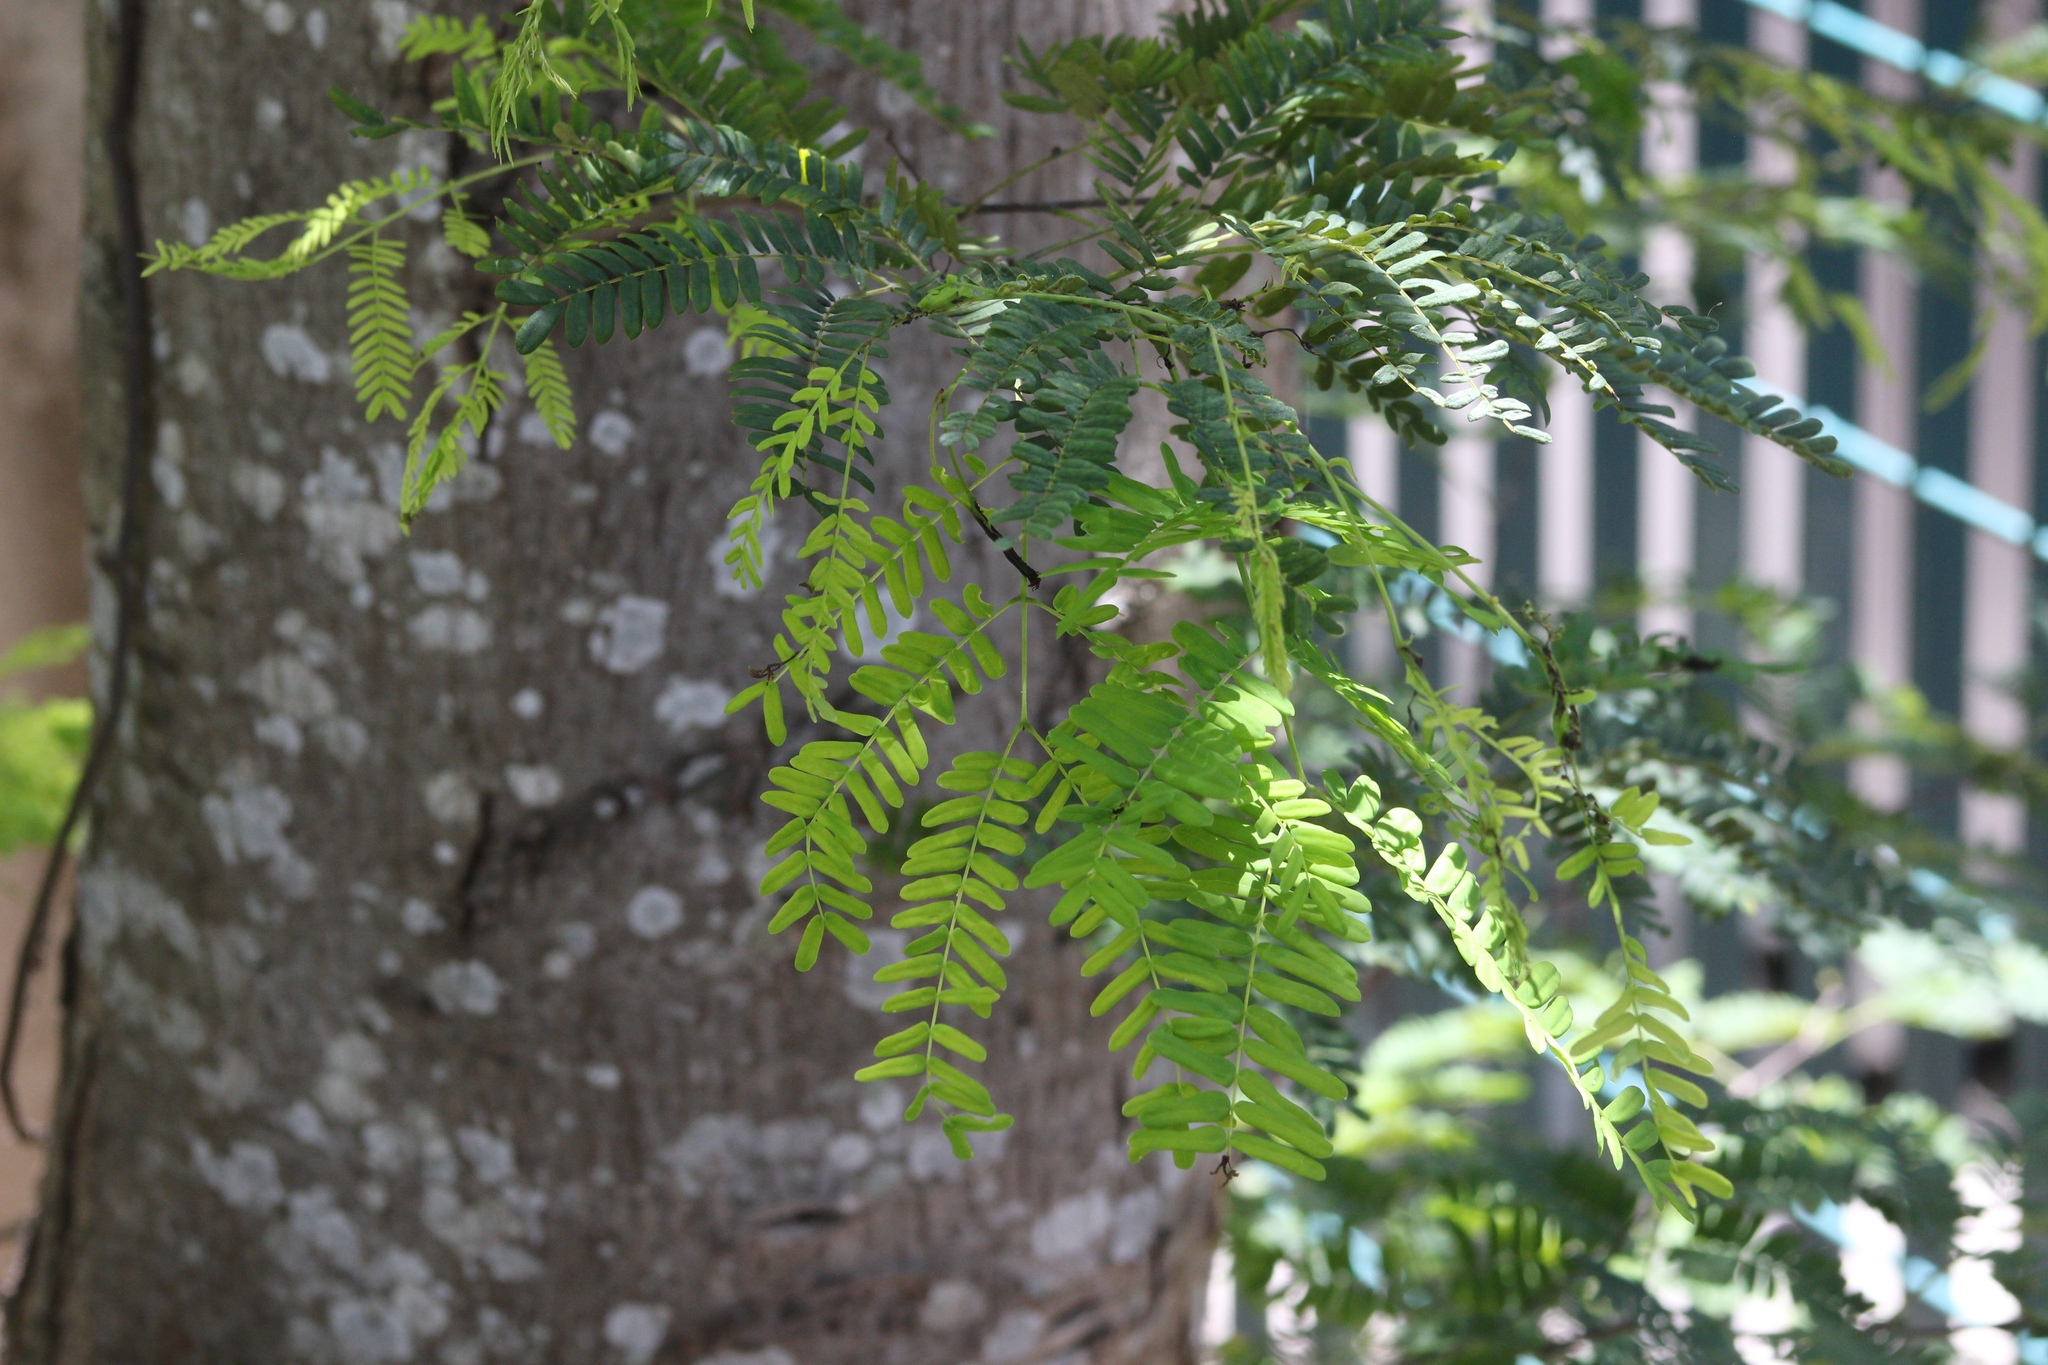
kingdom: Plantae
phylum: Tracheophyta
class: Magnoliopsida
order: Fabales
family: Fabaceae
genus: Lysiloma
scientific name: Lysiloma latisiliquum
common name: Wild tamarind
